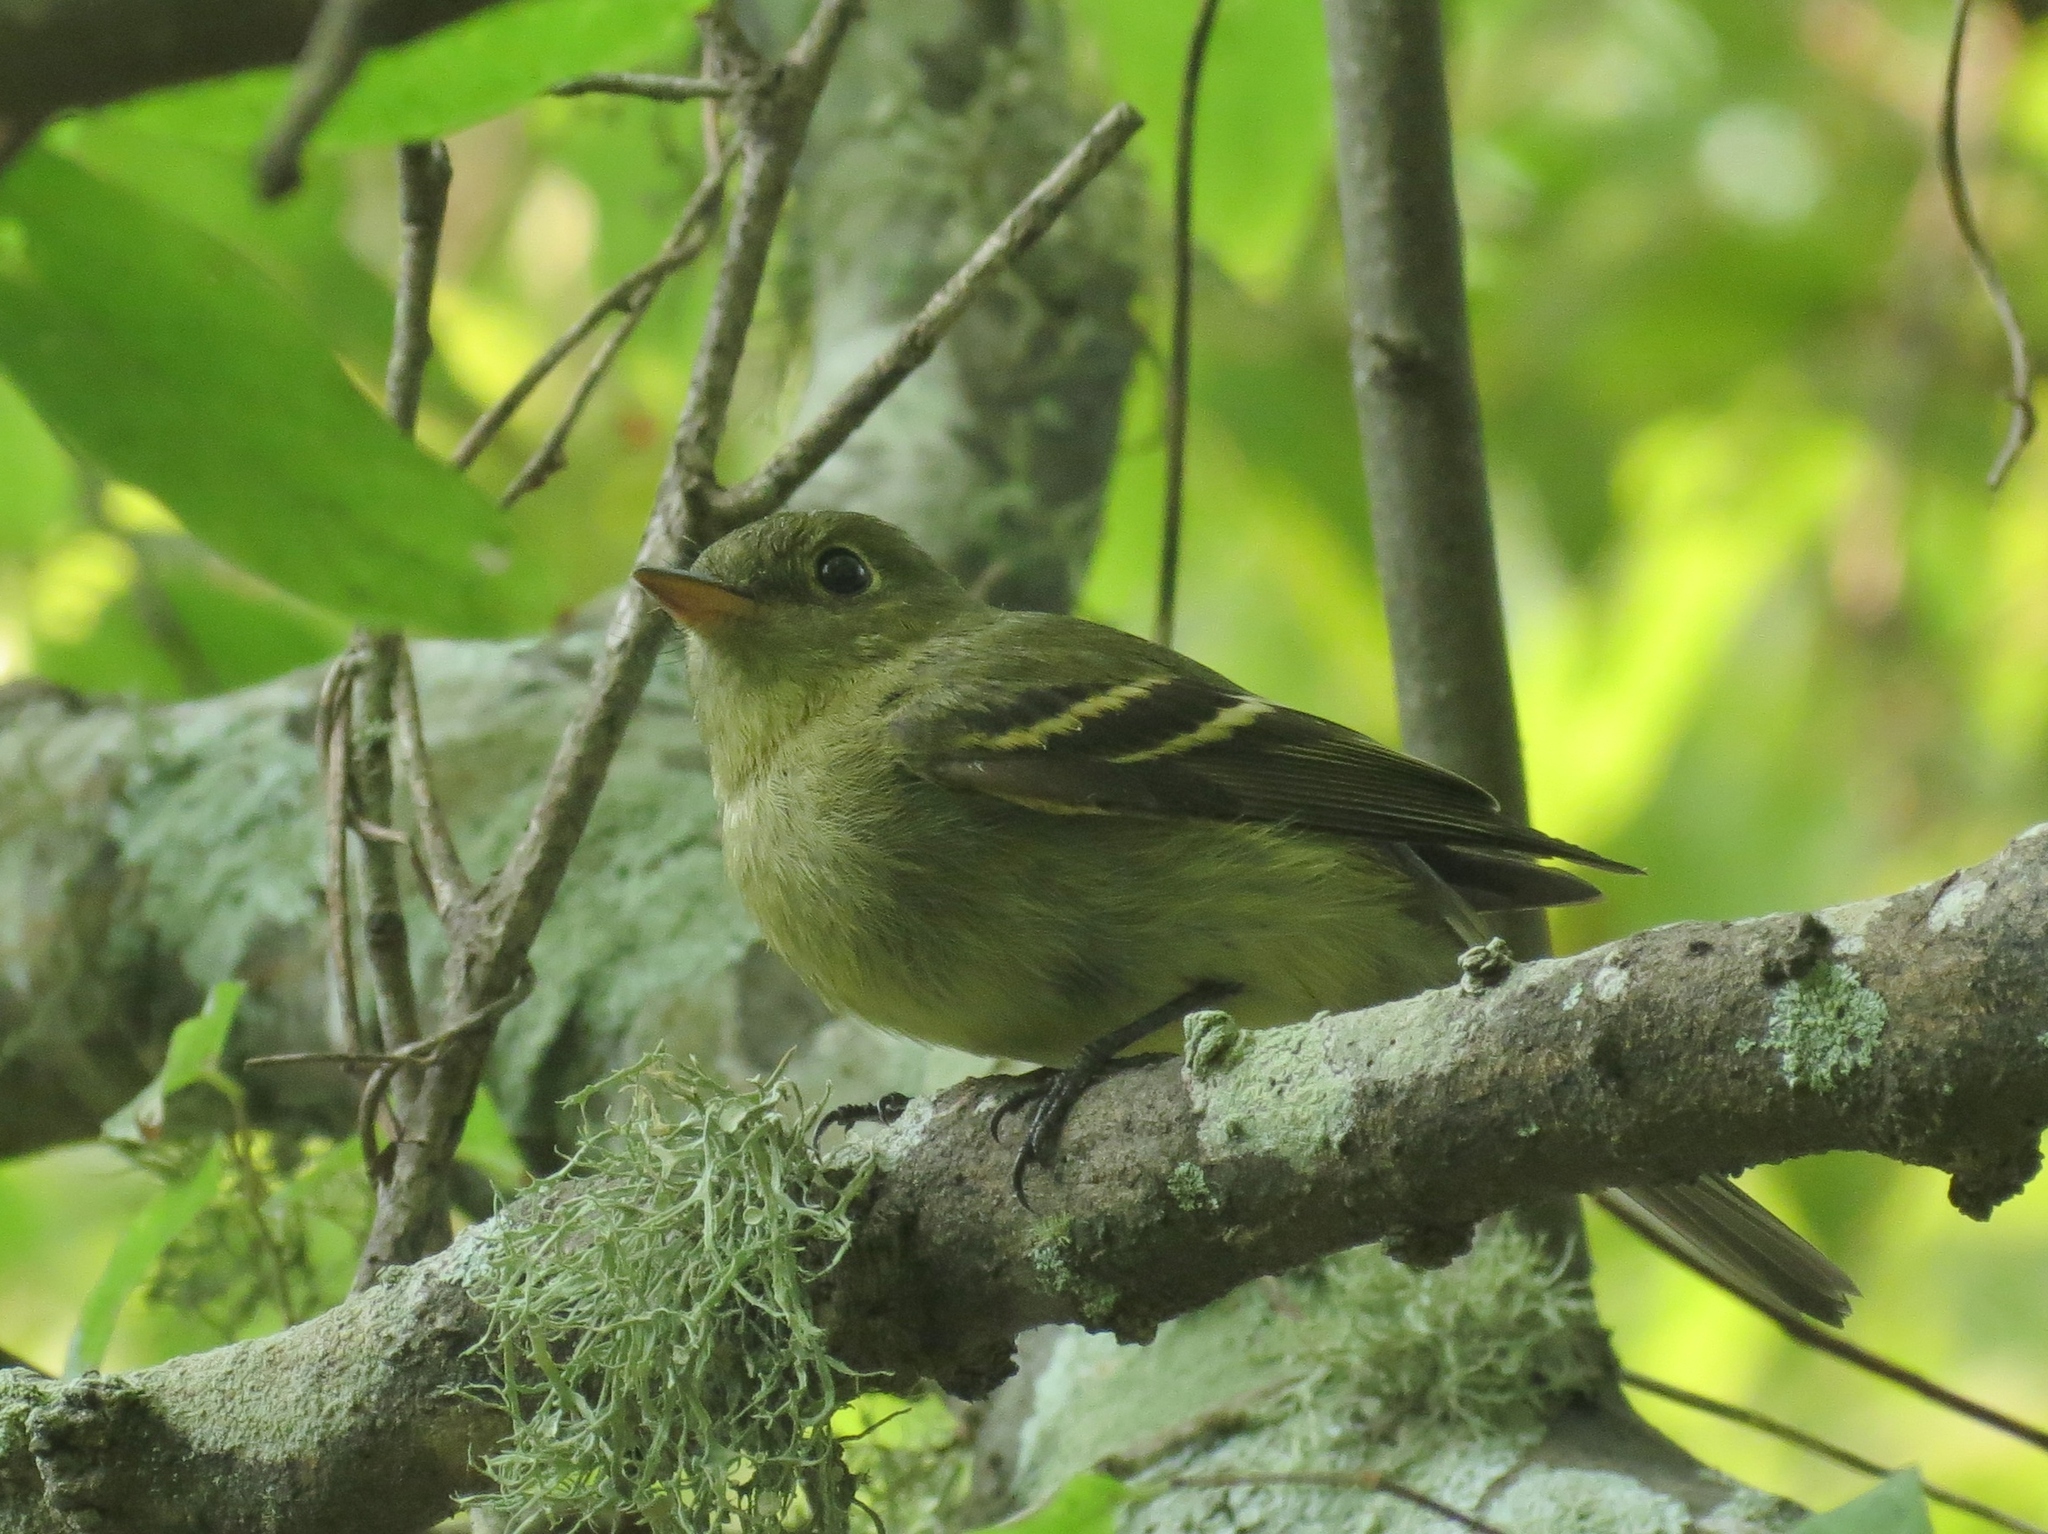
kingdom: Animalia
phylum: Chordata
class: Aves
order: Passeriformes
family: Tyrannidae
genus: Empidonax
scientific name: Empidonax flaviventris
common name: Yellow-bellied flycatcher
